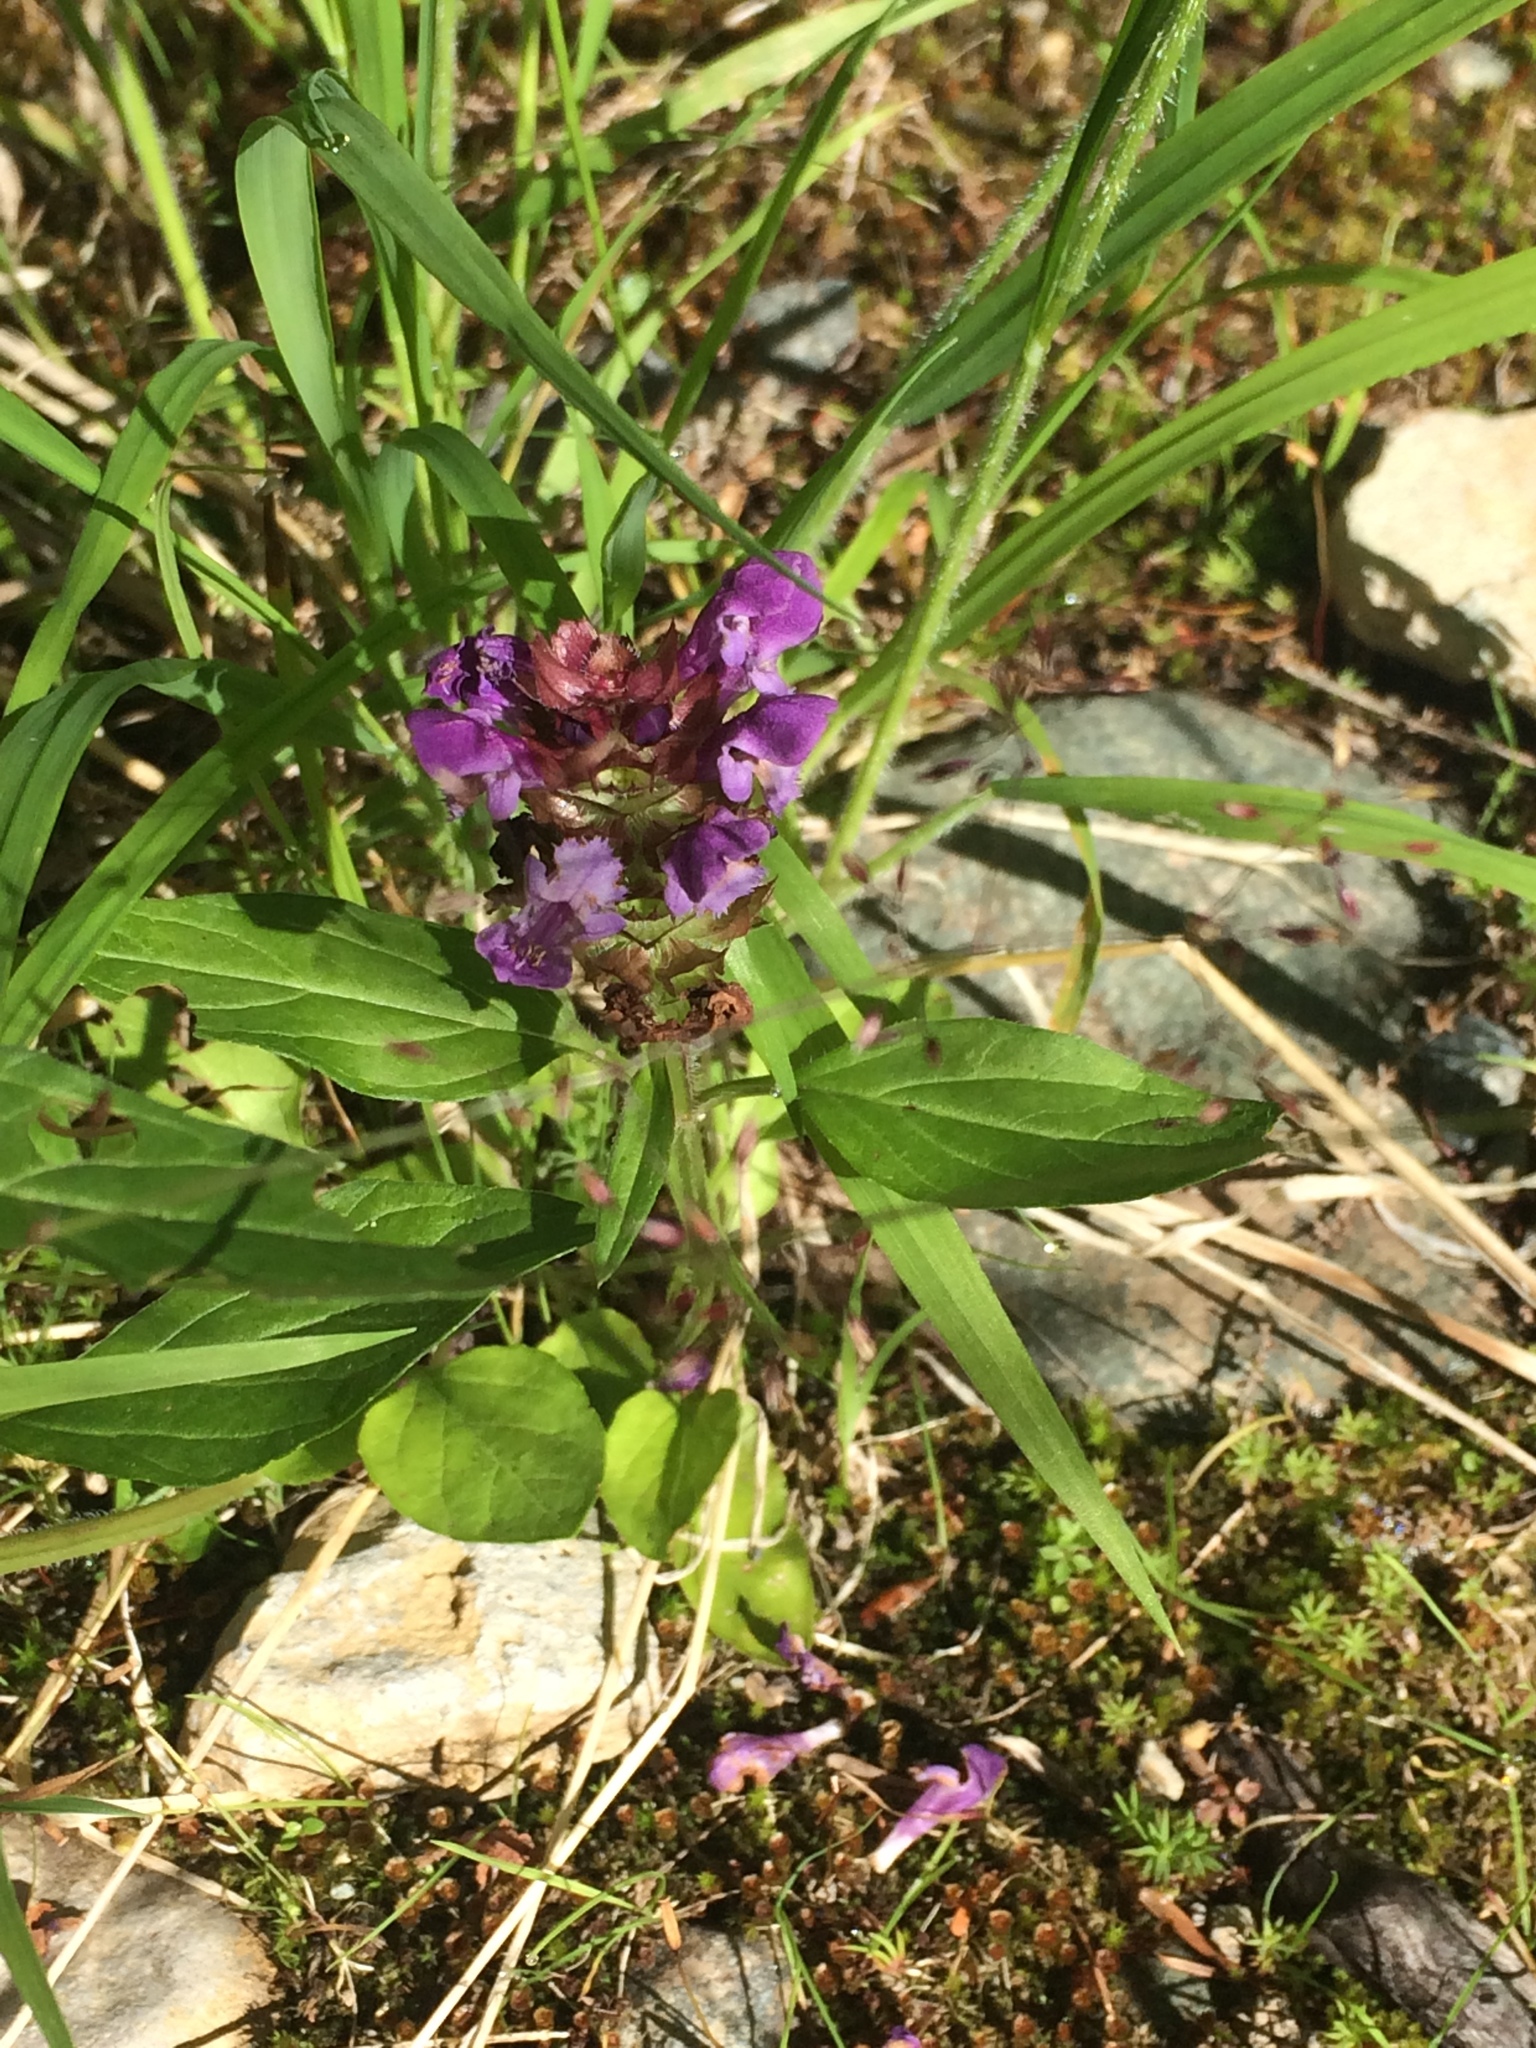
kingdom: Plantae
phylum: Tracheophyta
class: Magnoliopsida
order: Lamiales
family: Lamiaceae
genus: Prunella
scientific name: Prunella vulgaris
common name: Heal-all
